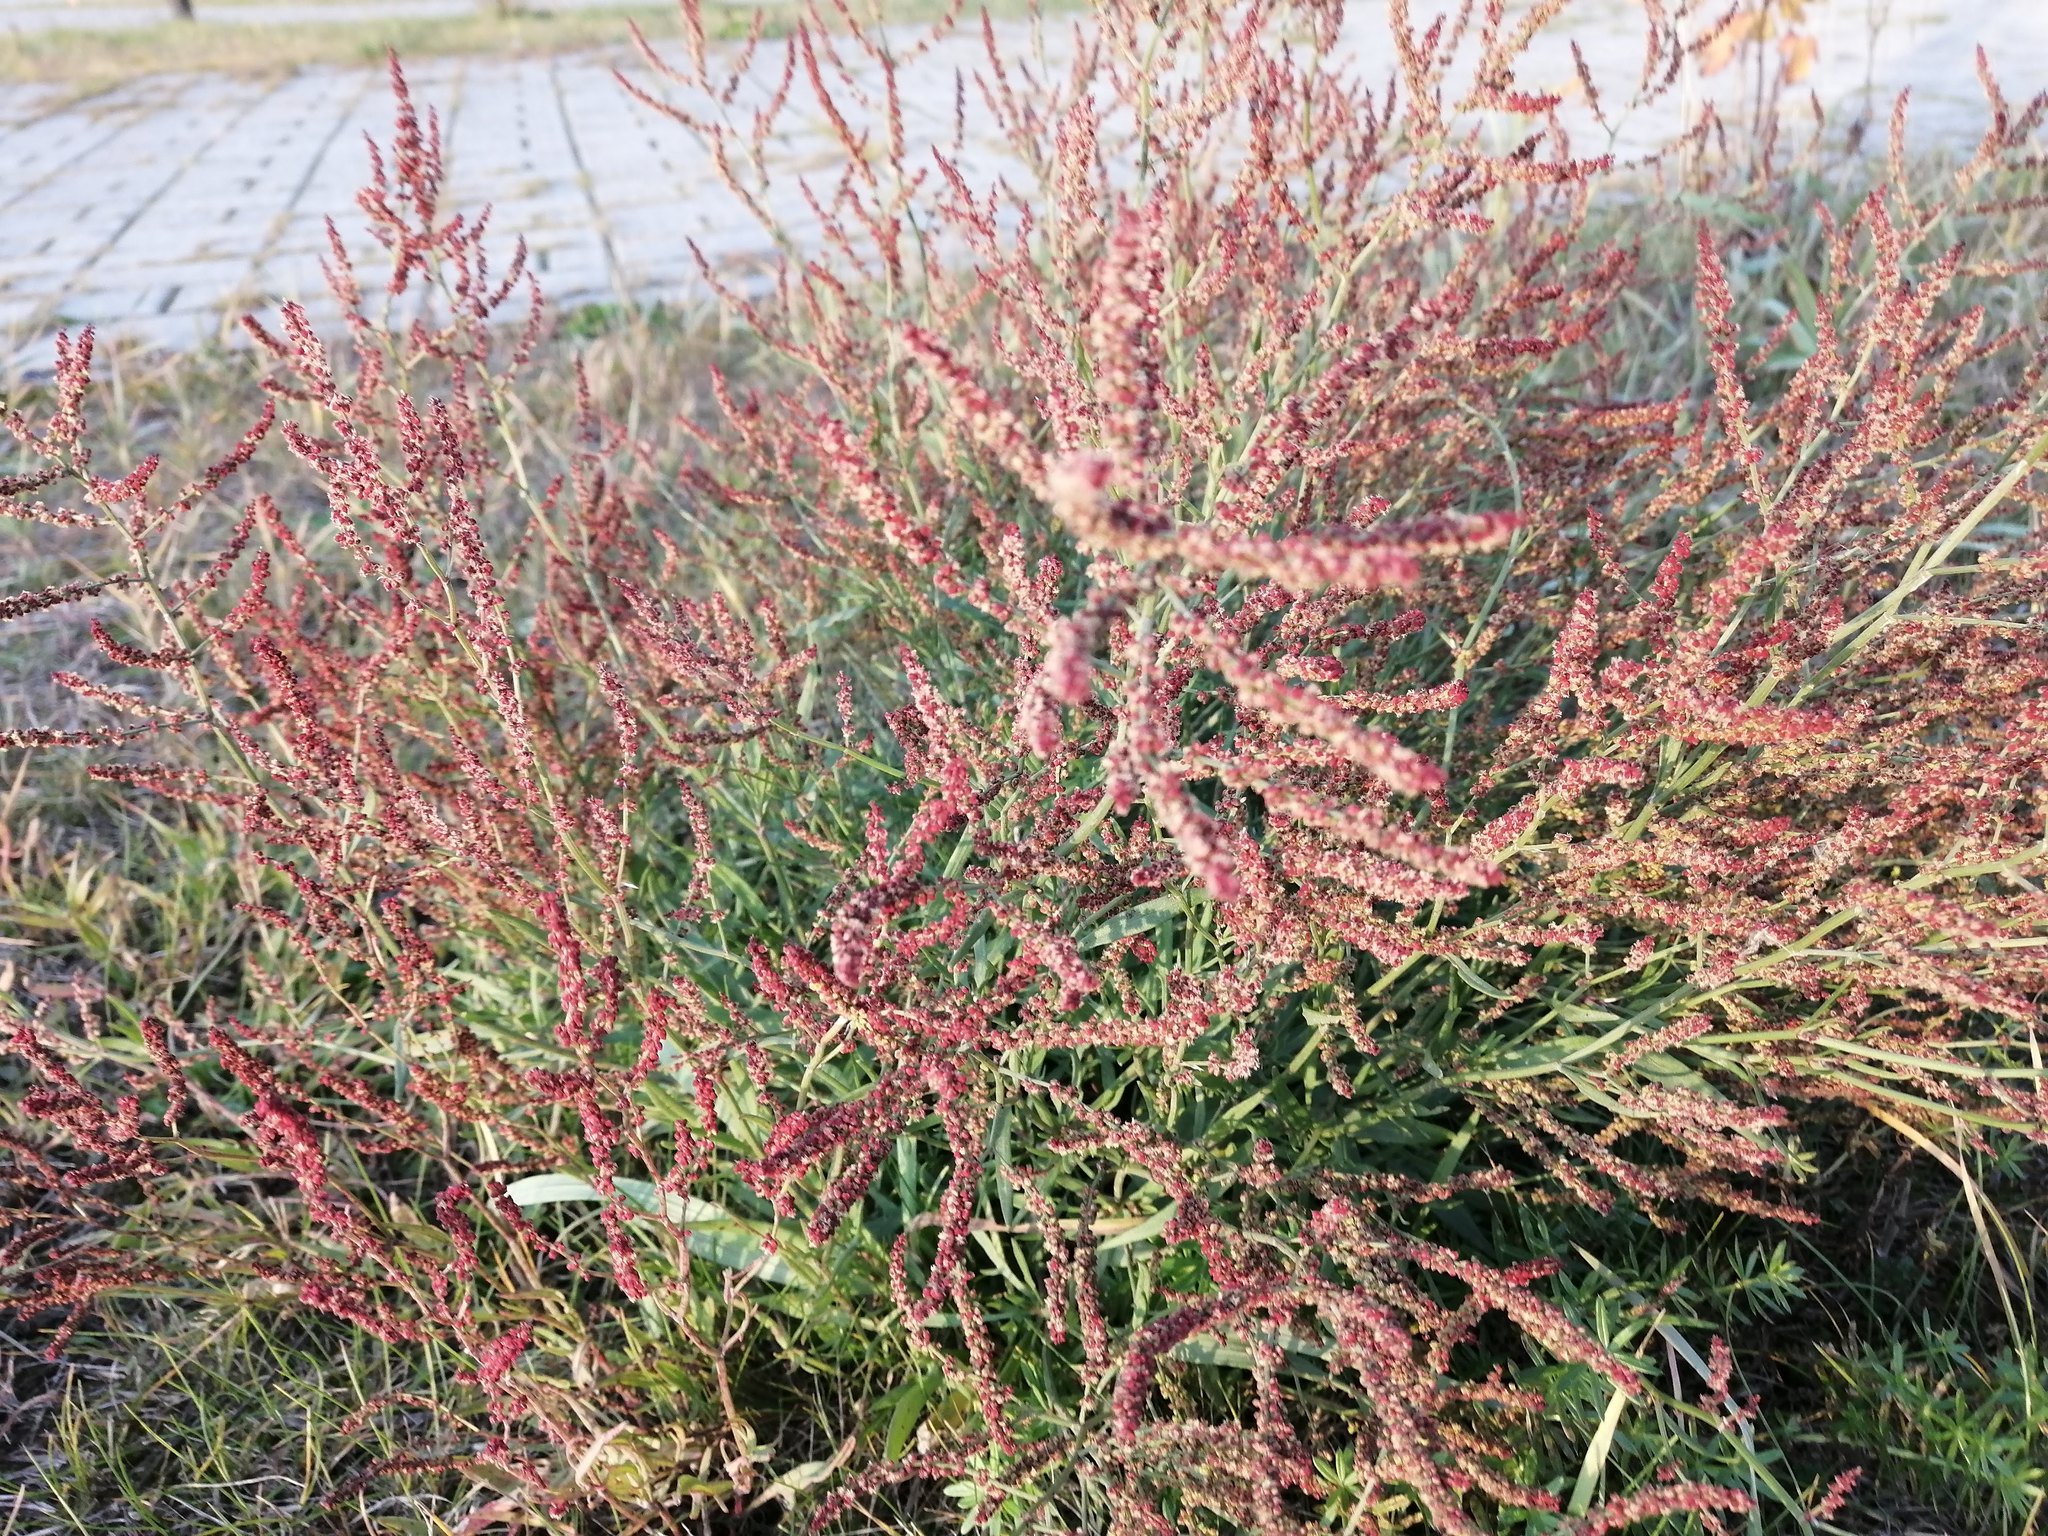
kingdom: Plantae
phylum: Tracheophyta
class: Magnoliopsida
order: Caryophyllales
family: Polygonaceae
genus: Rumex
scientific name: Rumex acetosella
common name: Common sheep sorrel
